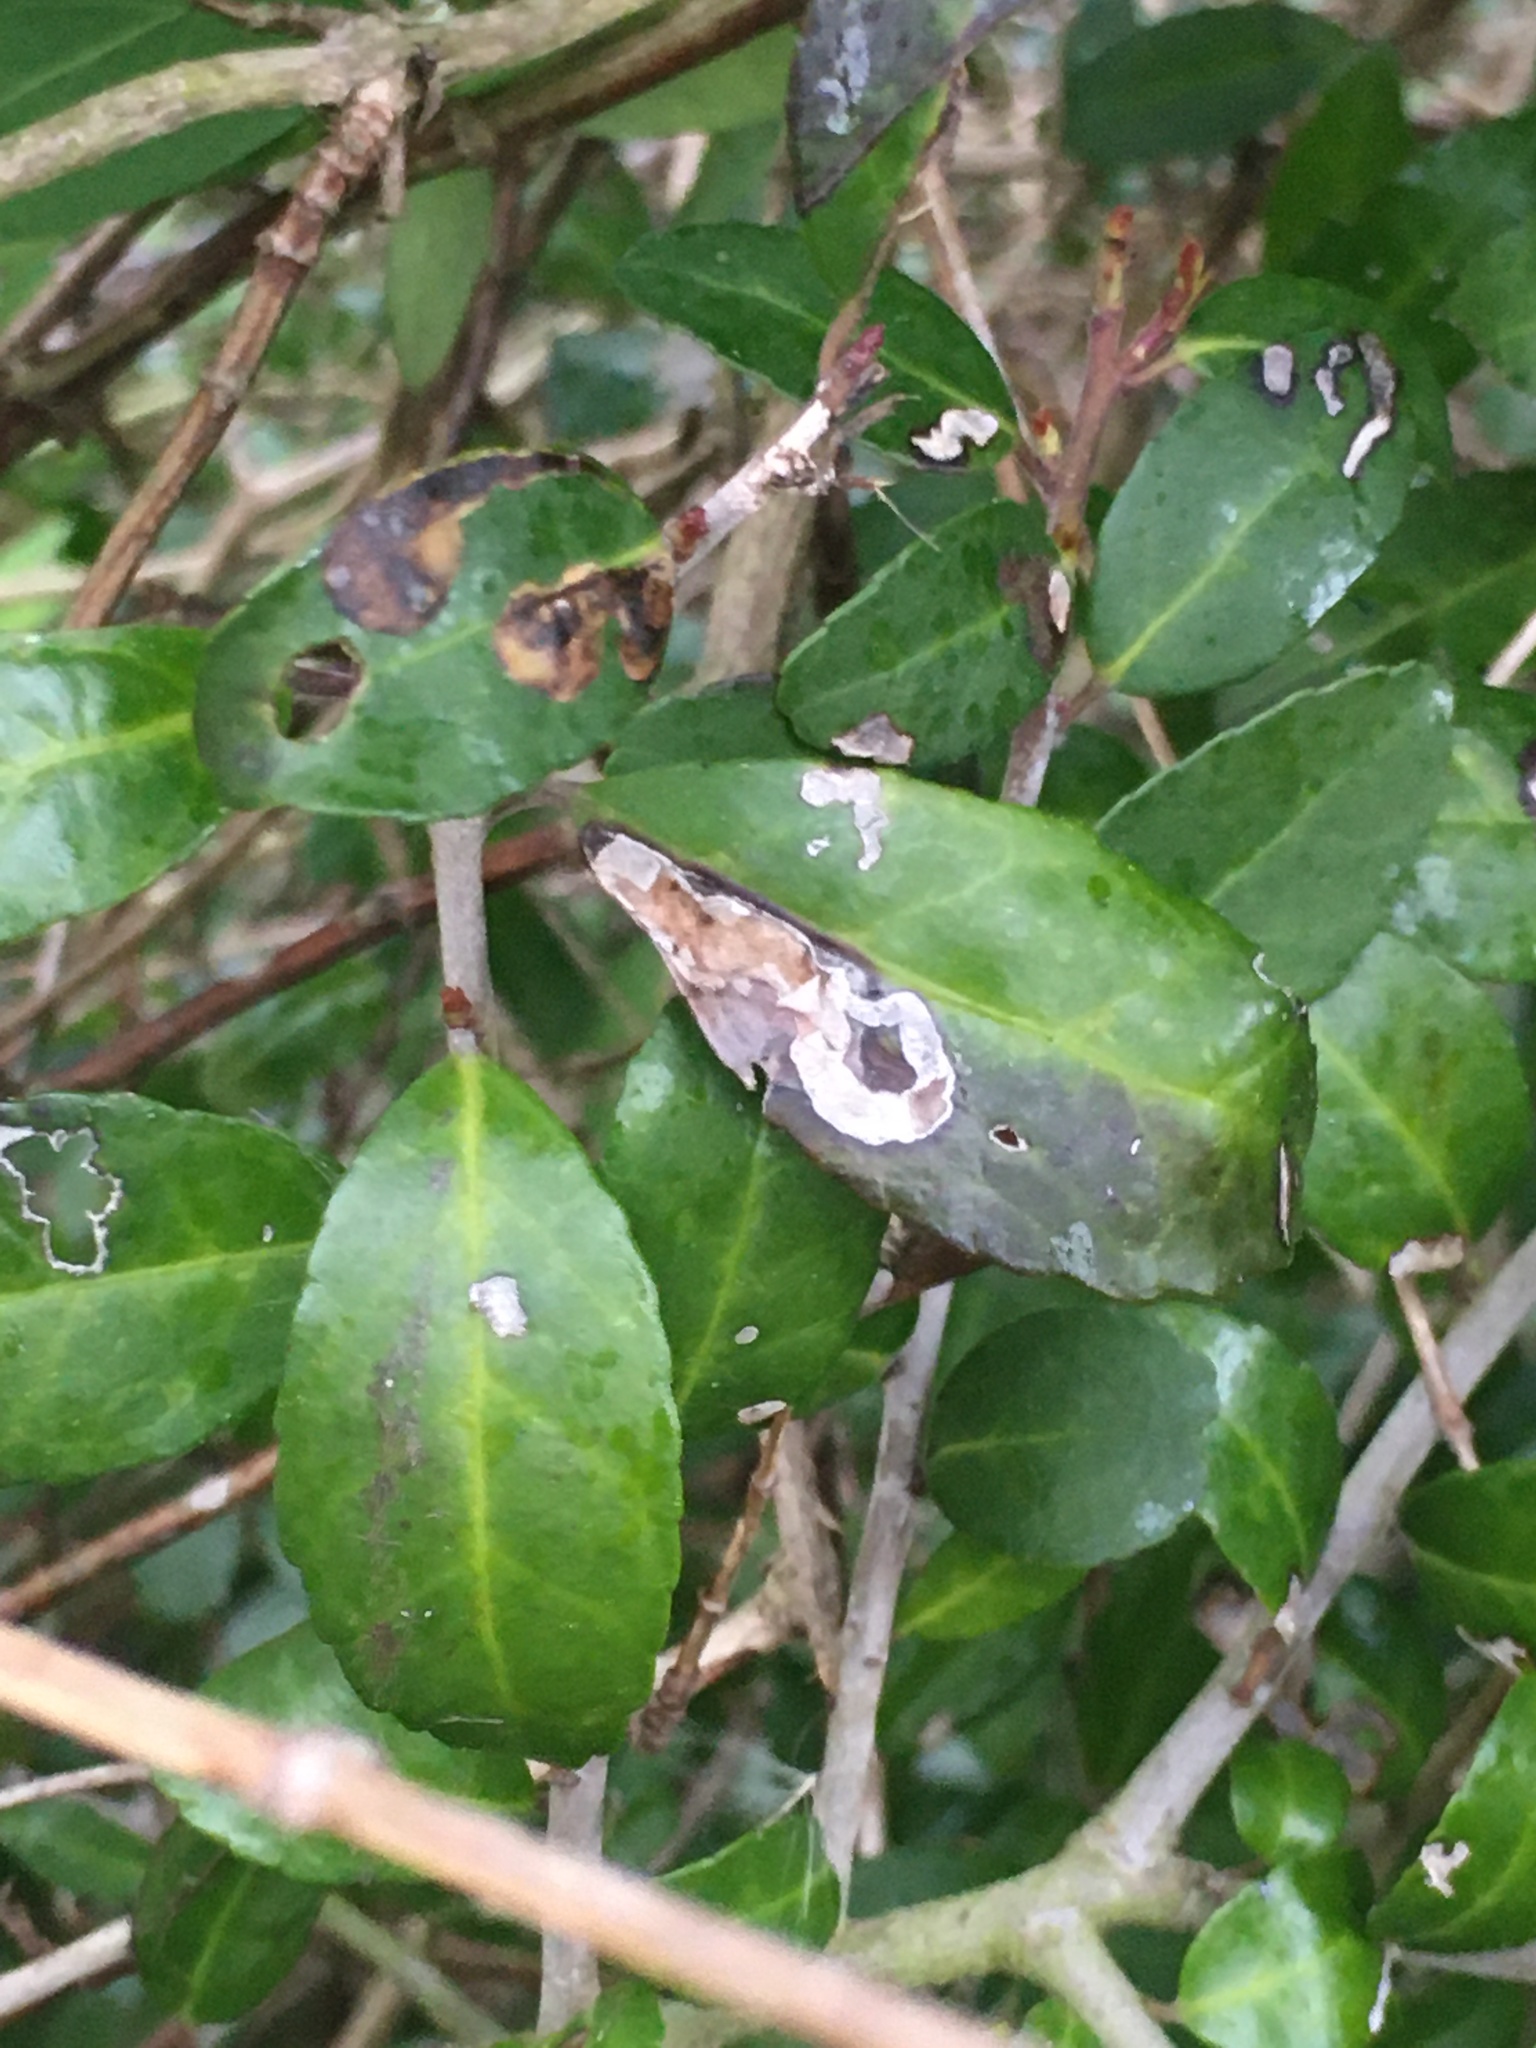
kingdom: Animalia
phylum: Arthropoda
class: Insecta
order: Diptera
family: Agromyzidae
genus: Phytomyza
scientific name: Phytomyza vomitoriae
